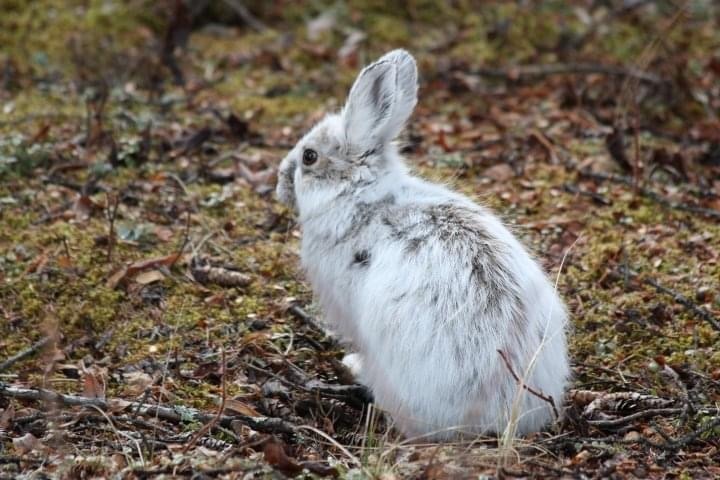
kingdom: Animalia
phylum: Chordata
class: Mammalia
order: Lagomorpha
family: Leporidae
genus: Lepus
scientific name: Lepus americanus
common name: Snowshoe hare
